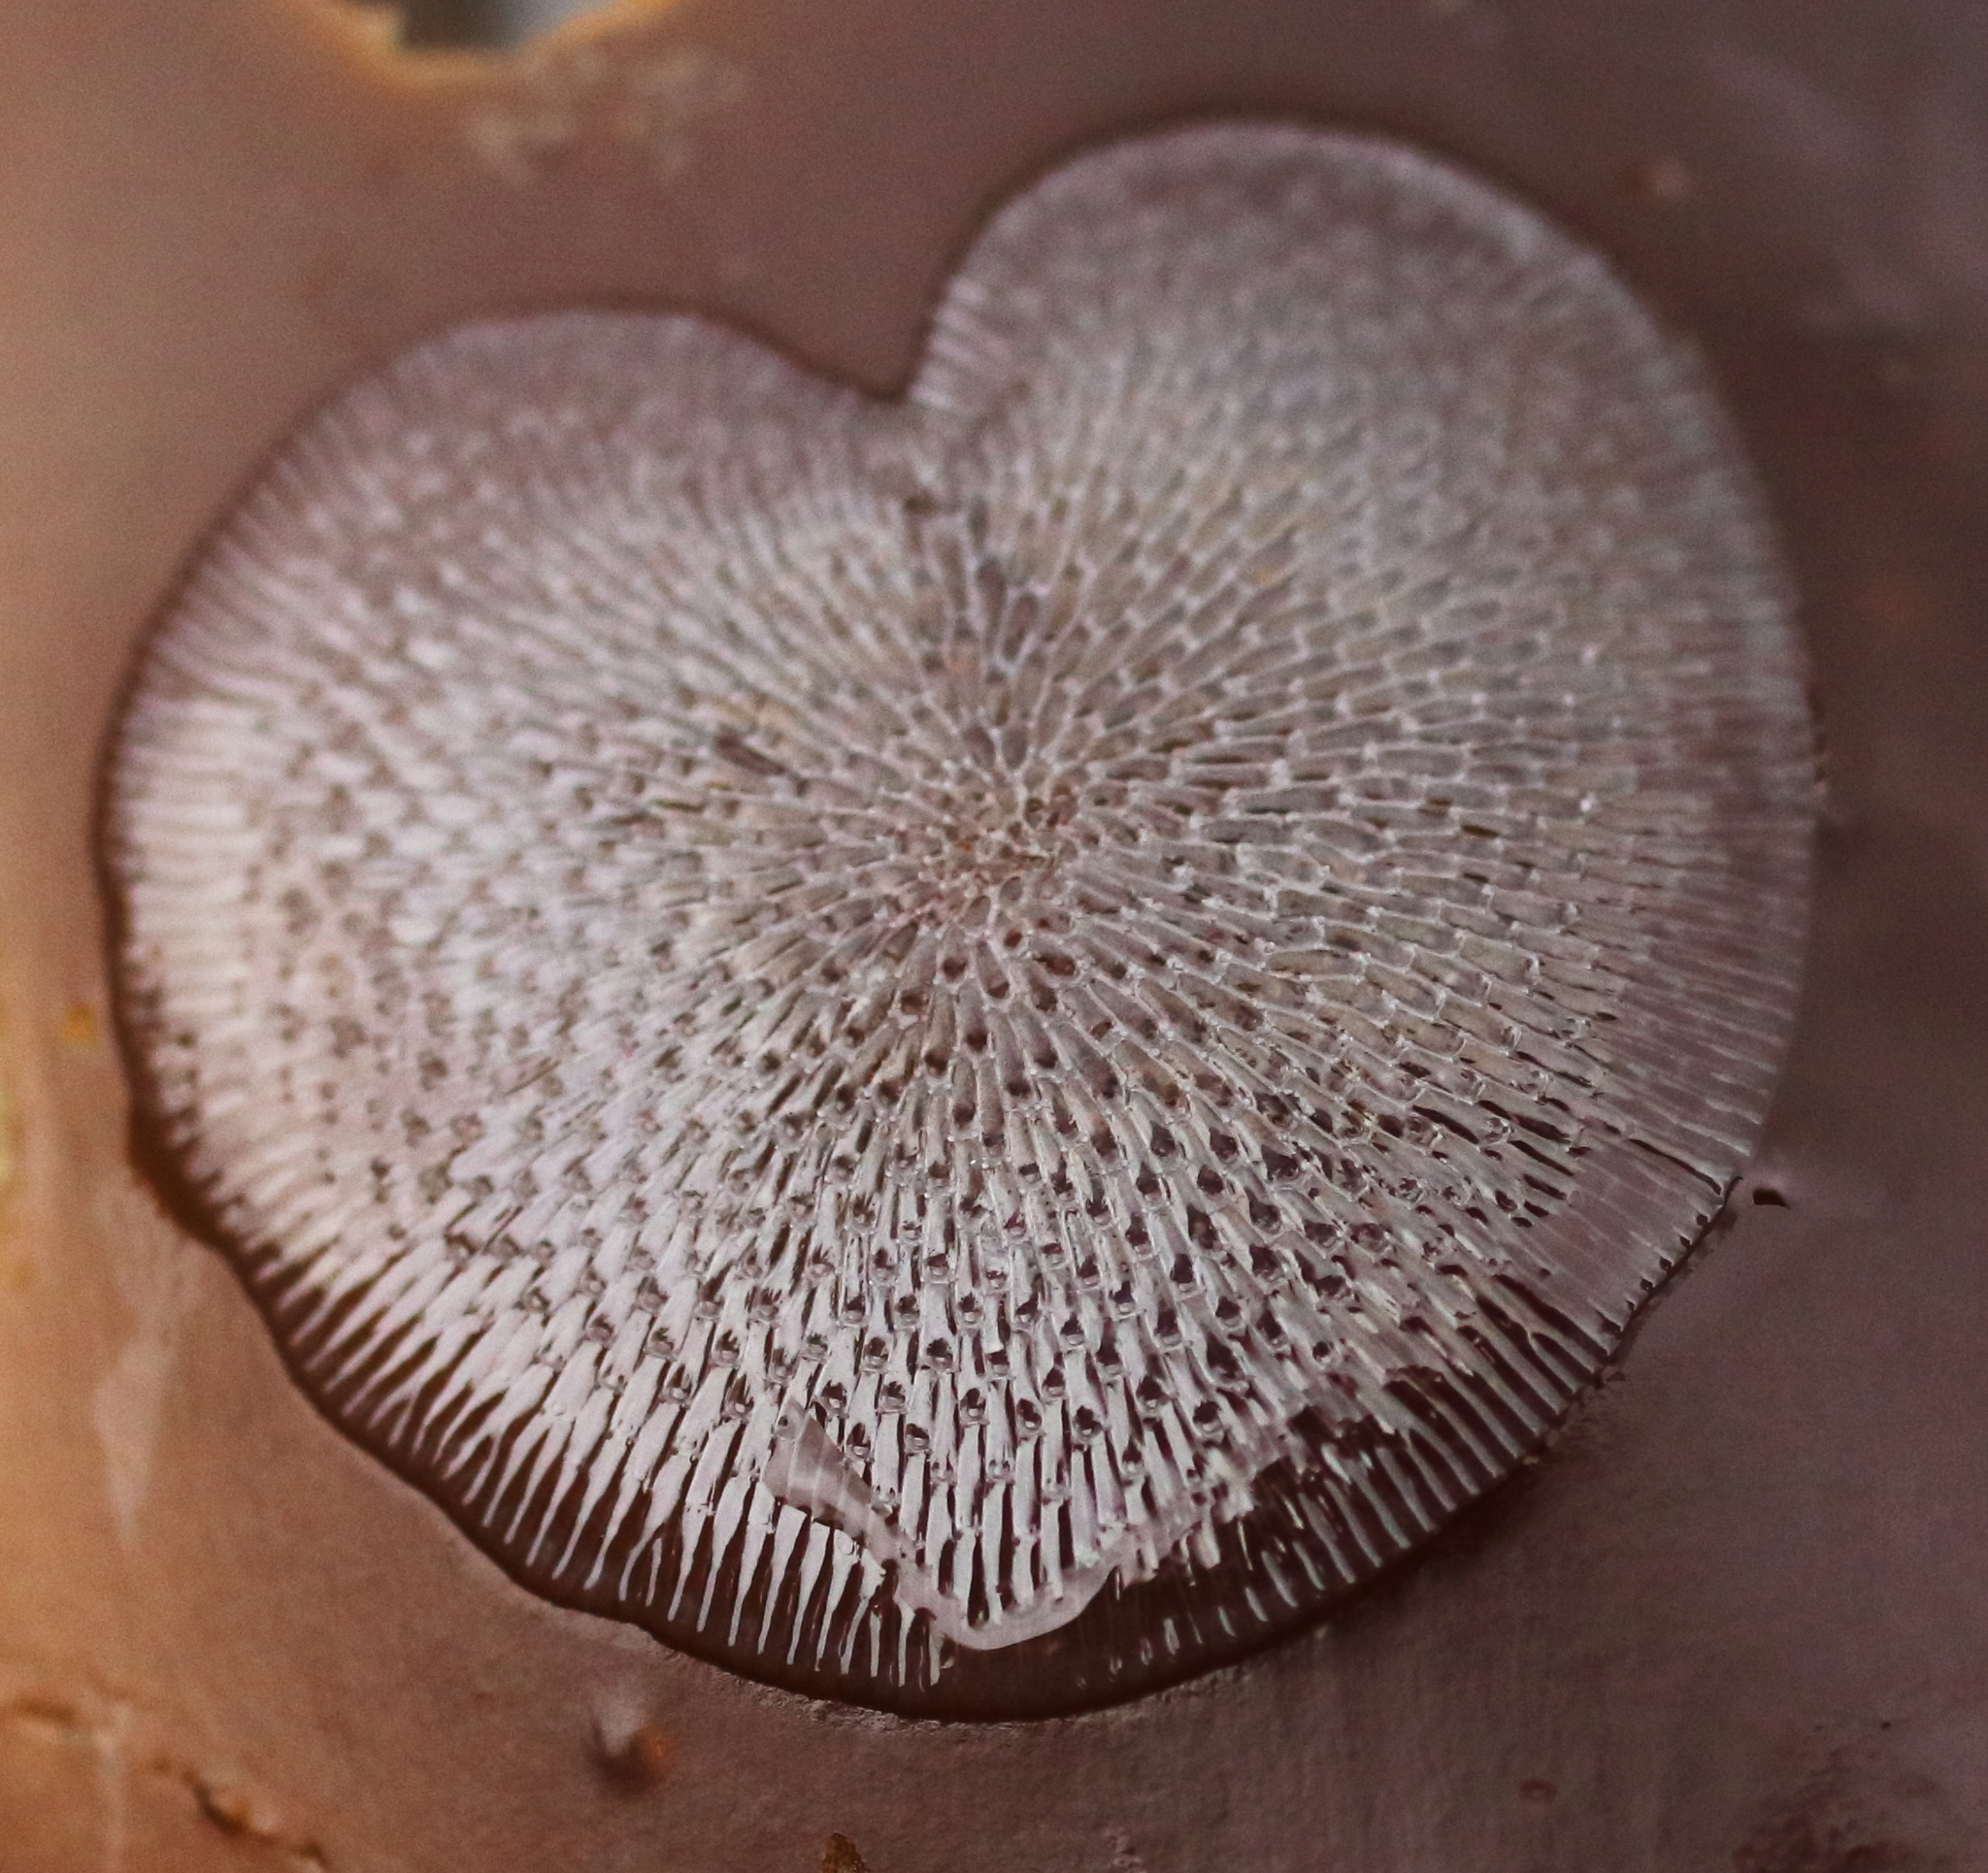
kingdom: Animalia
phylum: Bryozoa
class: Gymnolaemata
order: Cheilostomatida
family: Membraniporidae
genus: Membranipora
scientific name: Membranipora membranacea
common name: Sea mat
